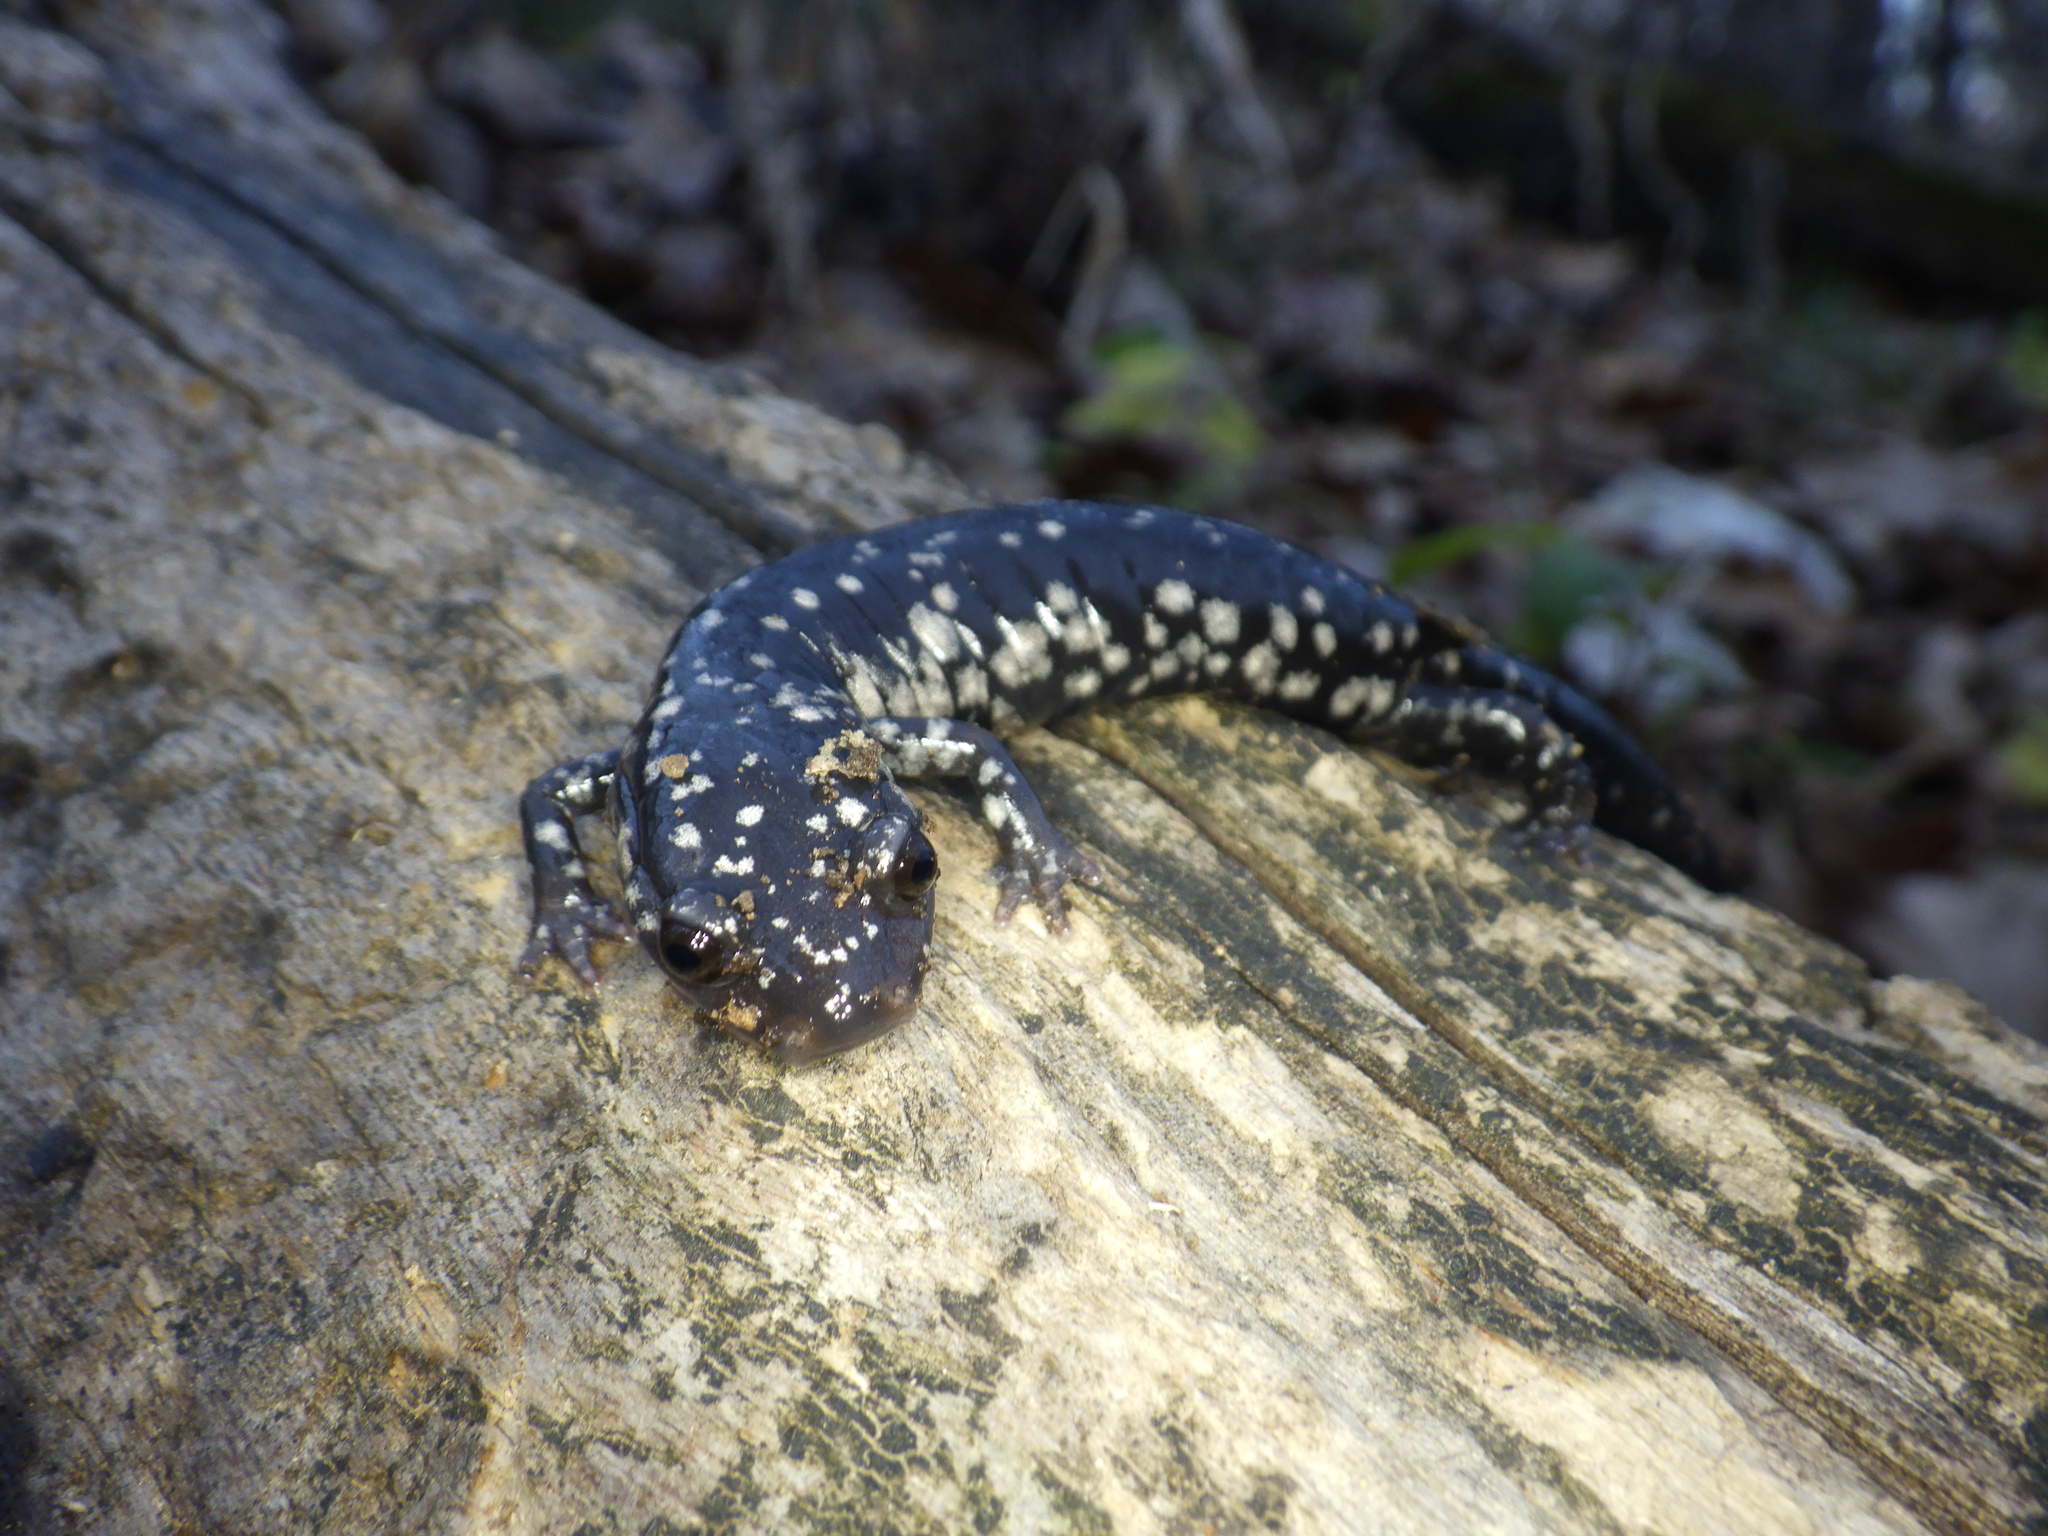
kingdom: Animalia
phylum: Chordata
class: Amphibia
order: Caudata
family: Plethodontidae
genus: Plethodon
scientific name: Plethodon albagula
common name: Western slimy salamander
